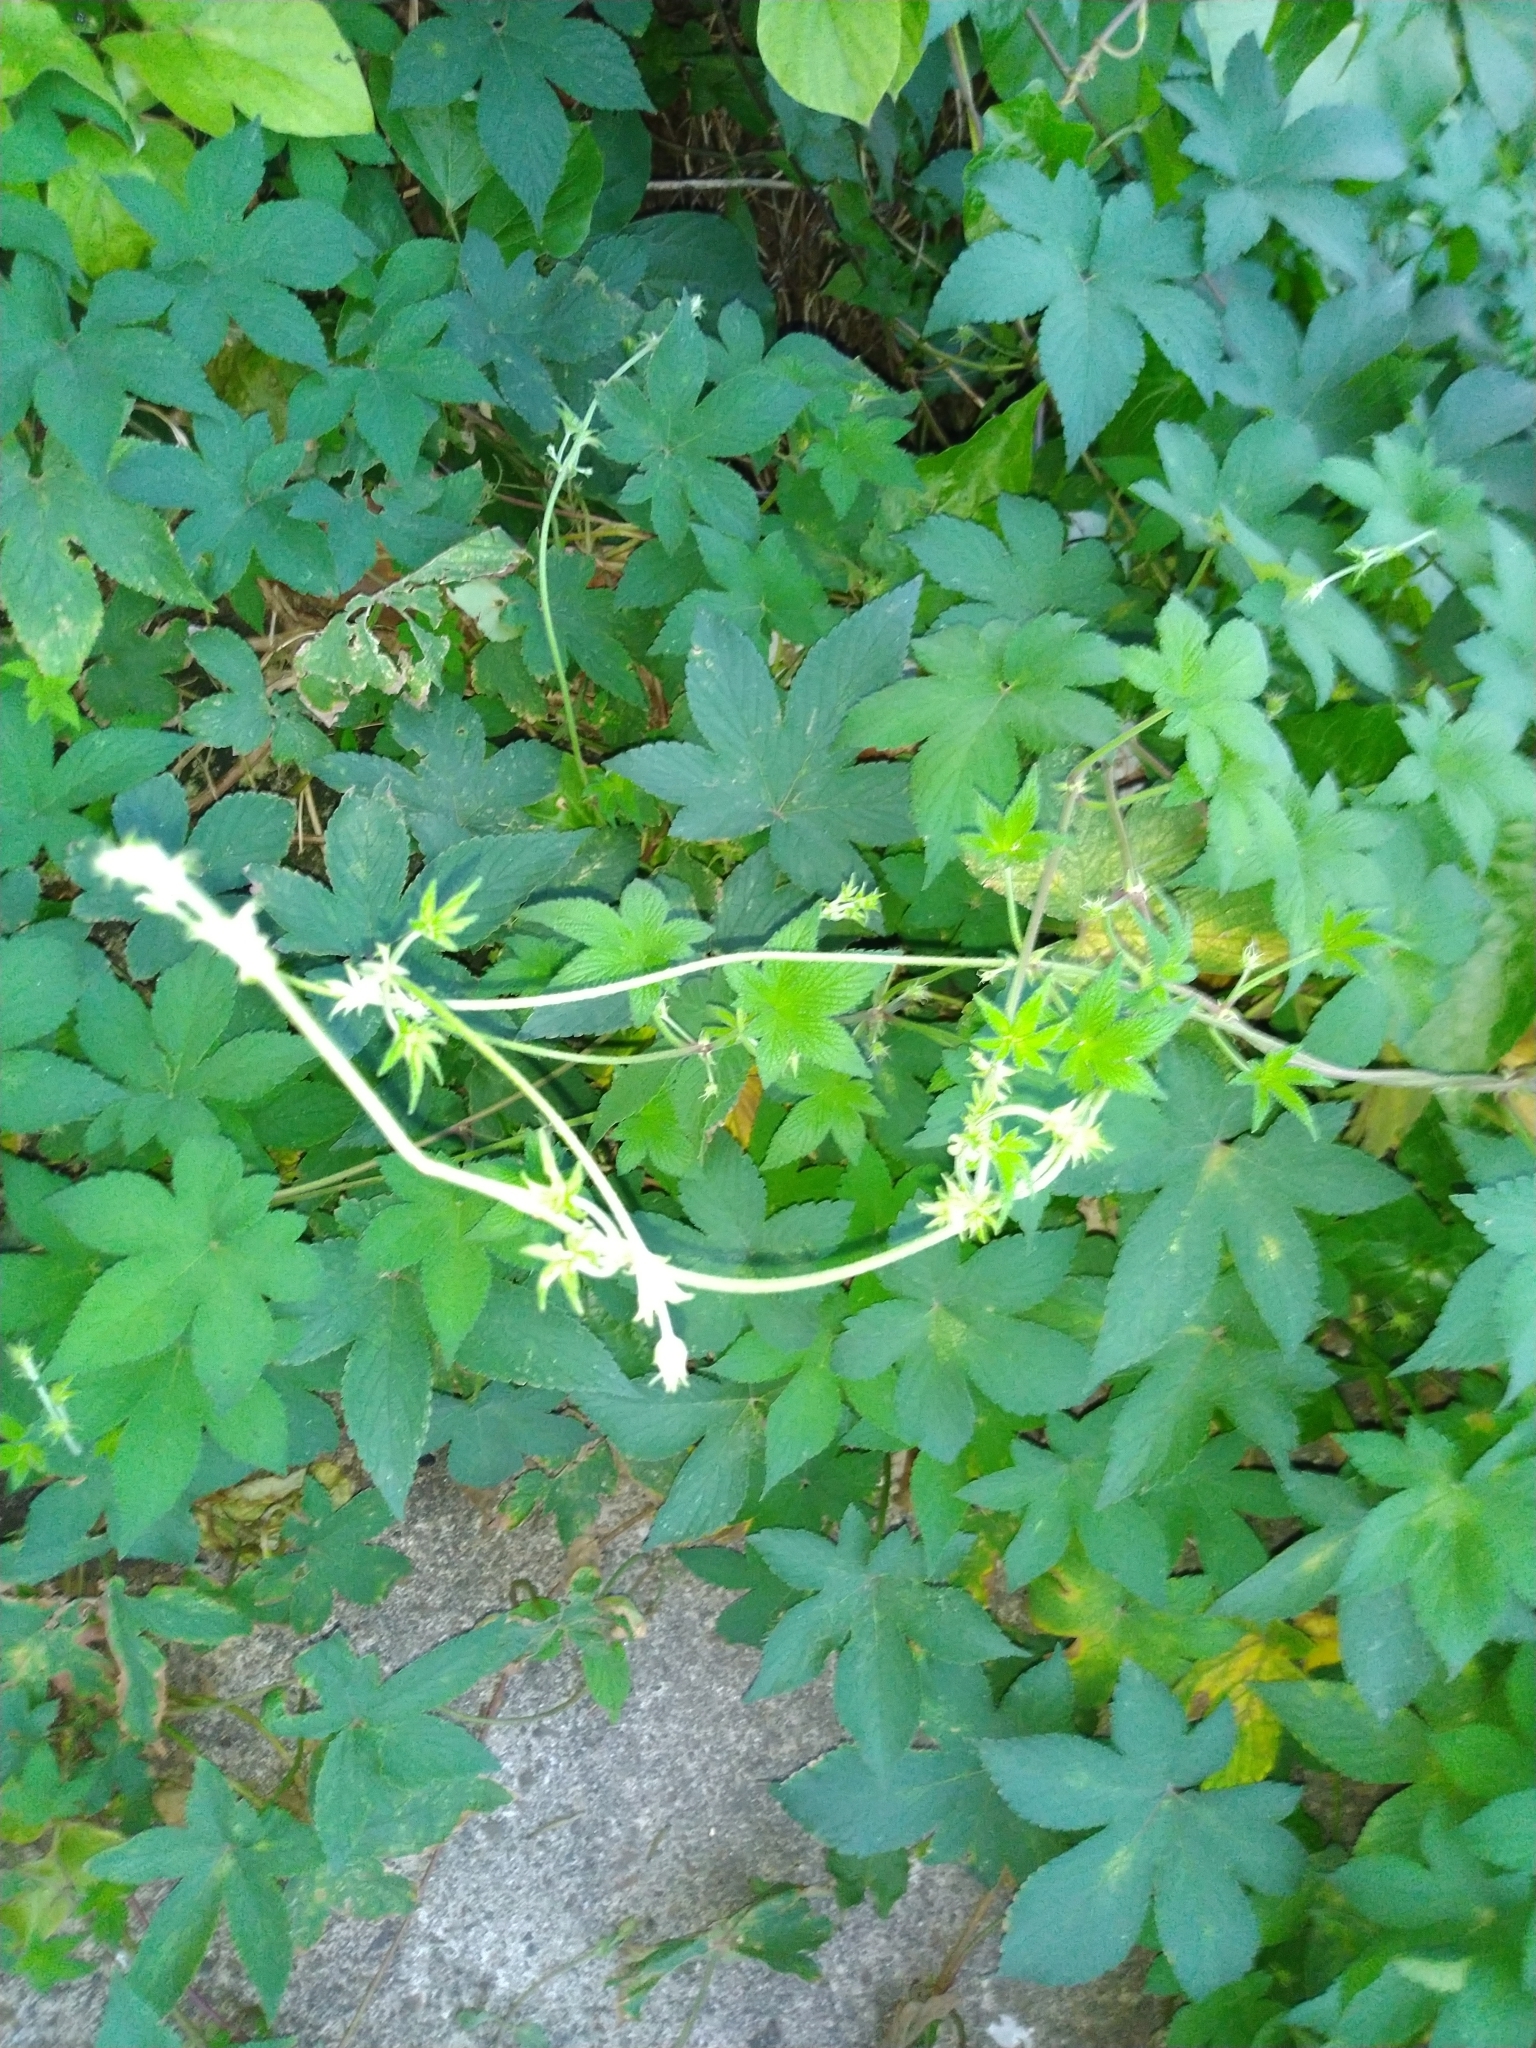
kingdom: Plantae
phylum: Tracheophyta
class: Magnoliopsida
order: Rosales
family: Cannabaceae
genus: Humulus
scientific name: Humulus scandens
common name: Japanese hop
